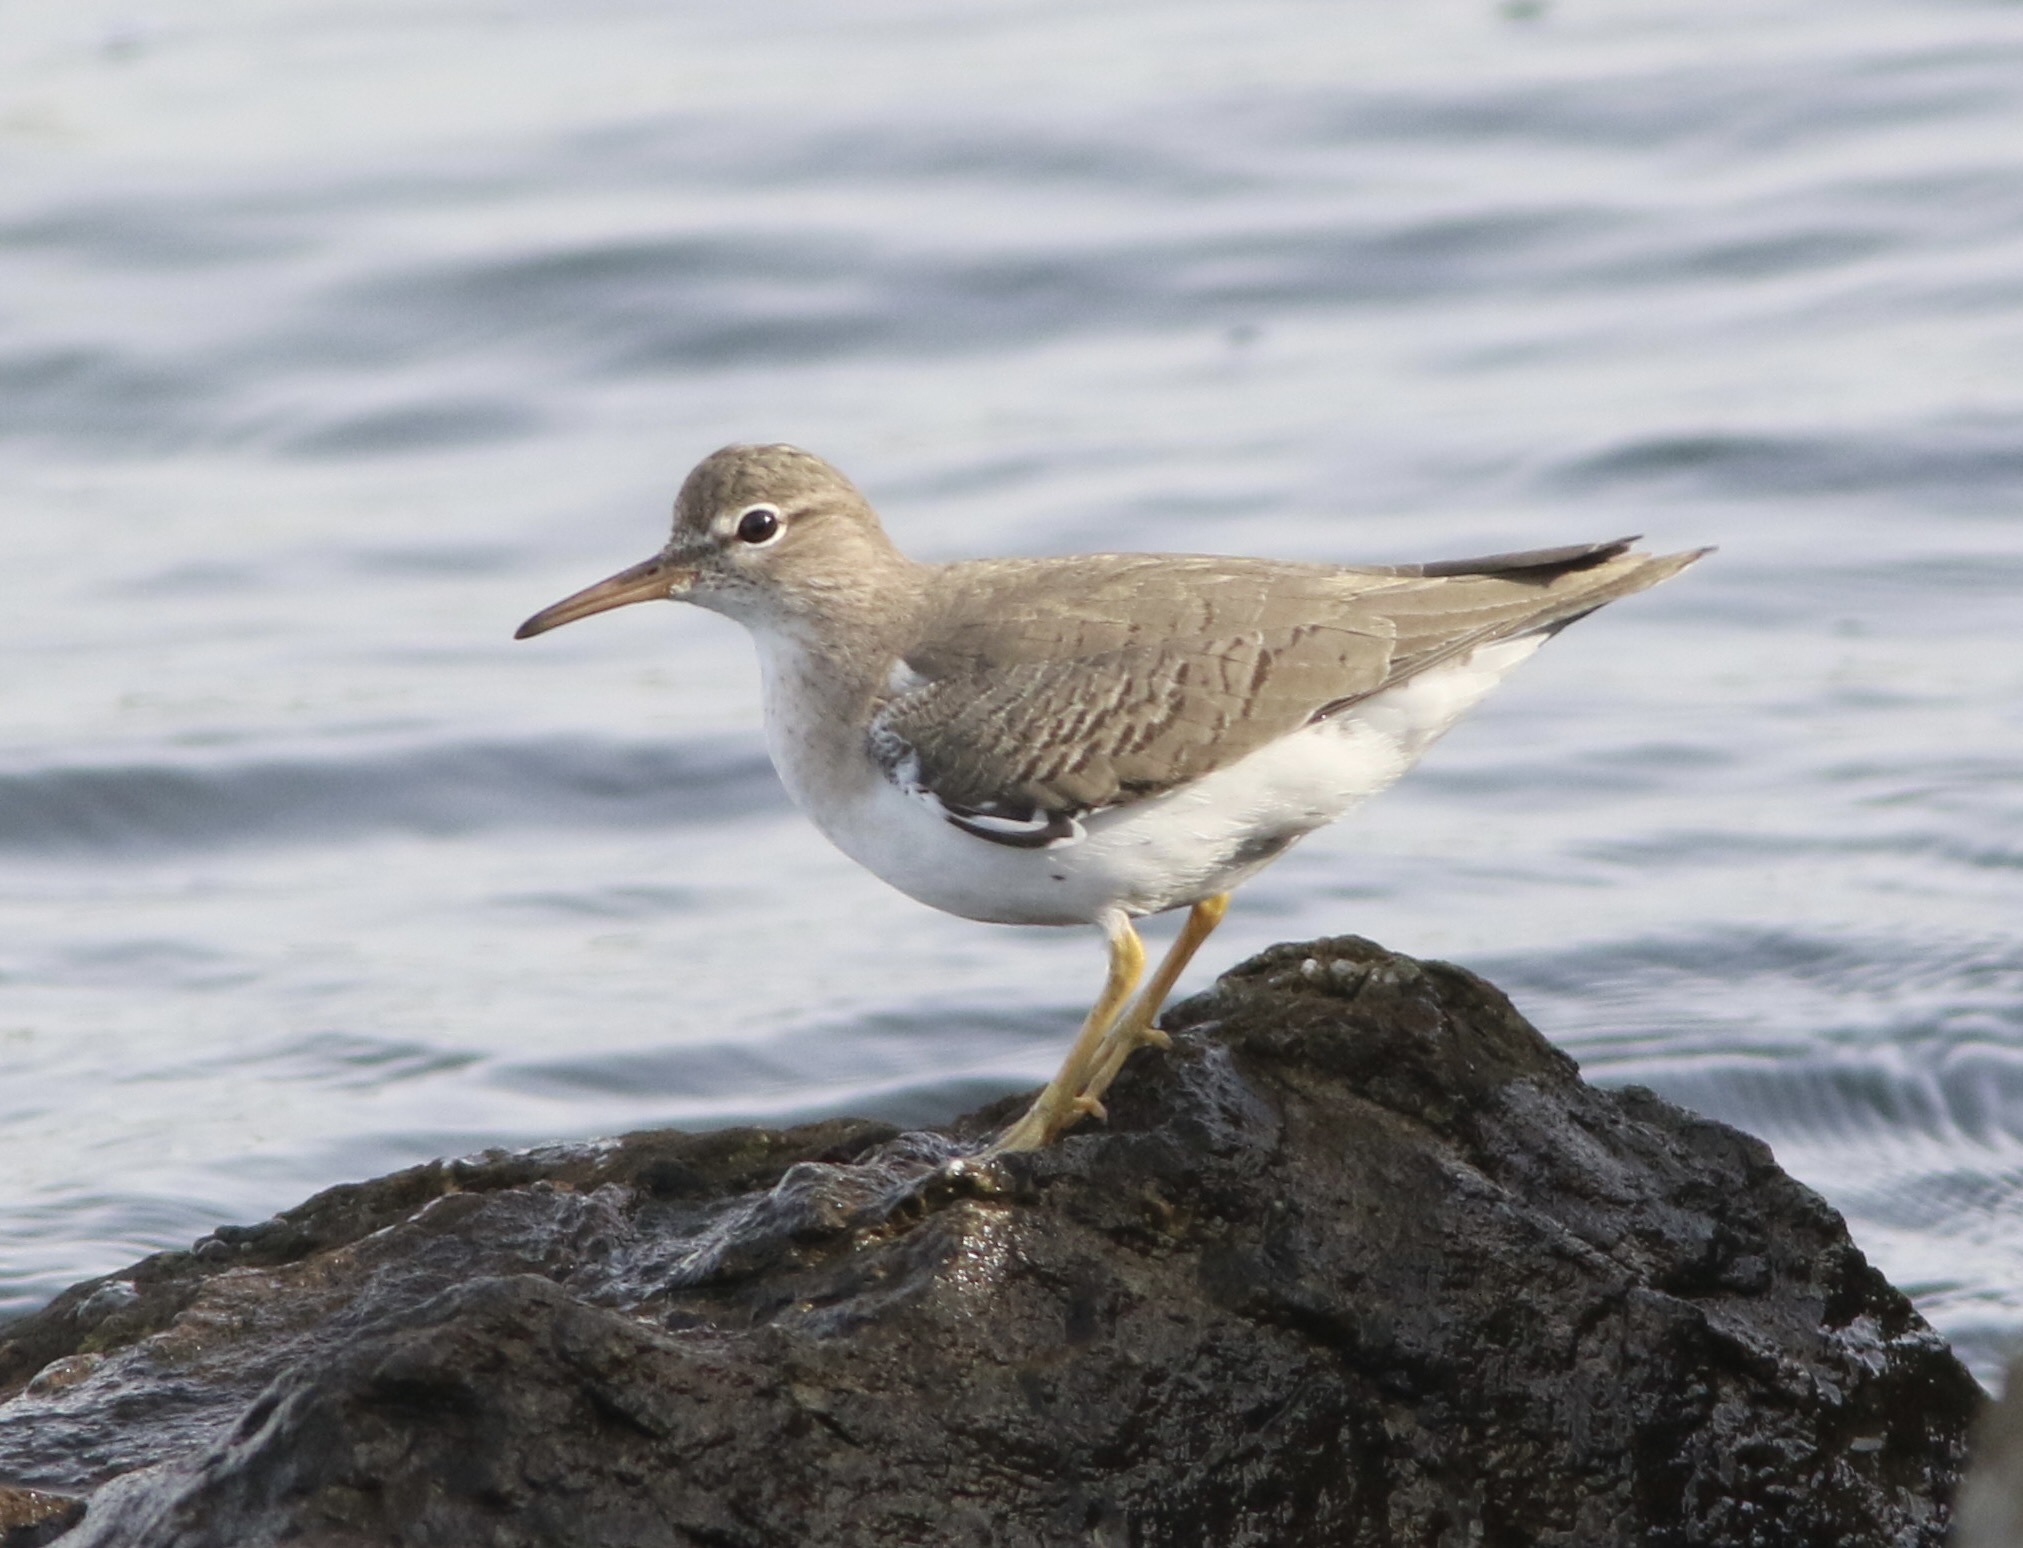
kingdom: Animalia
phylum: Chordata
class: Aves
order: Charadriiformes
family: Scolopacidae
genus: Actitis
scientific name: Actitis macularius
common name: Spotted sandpiper
